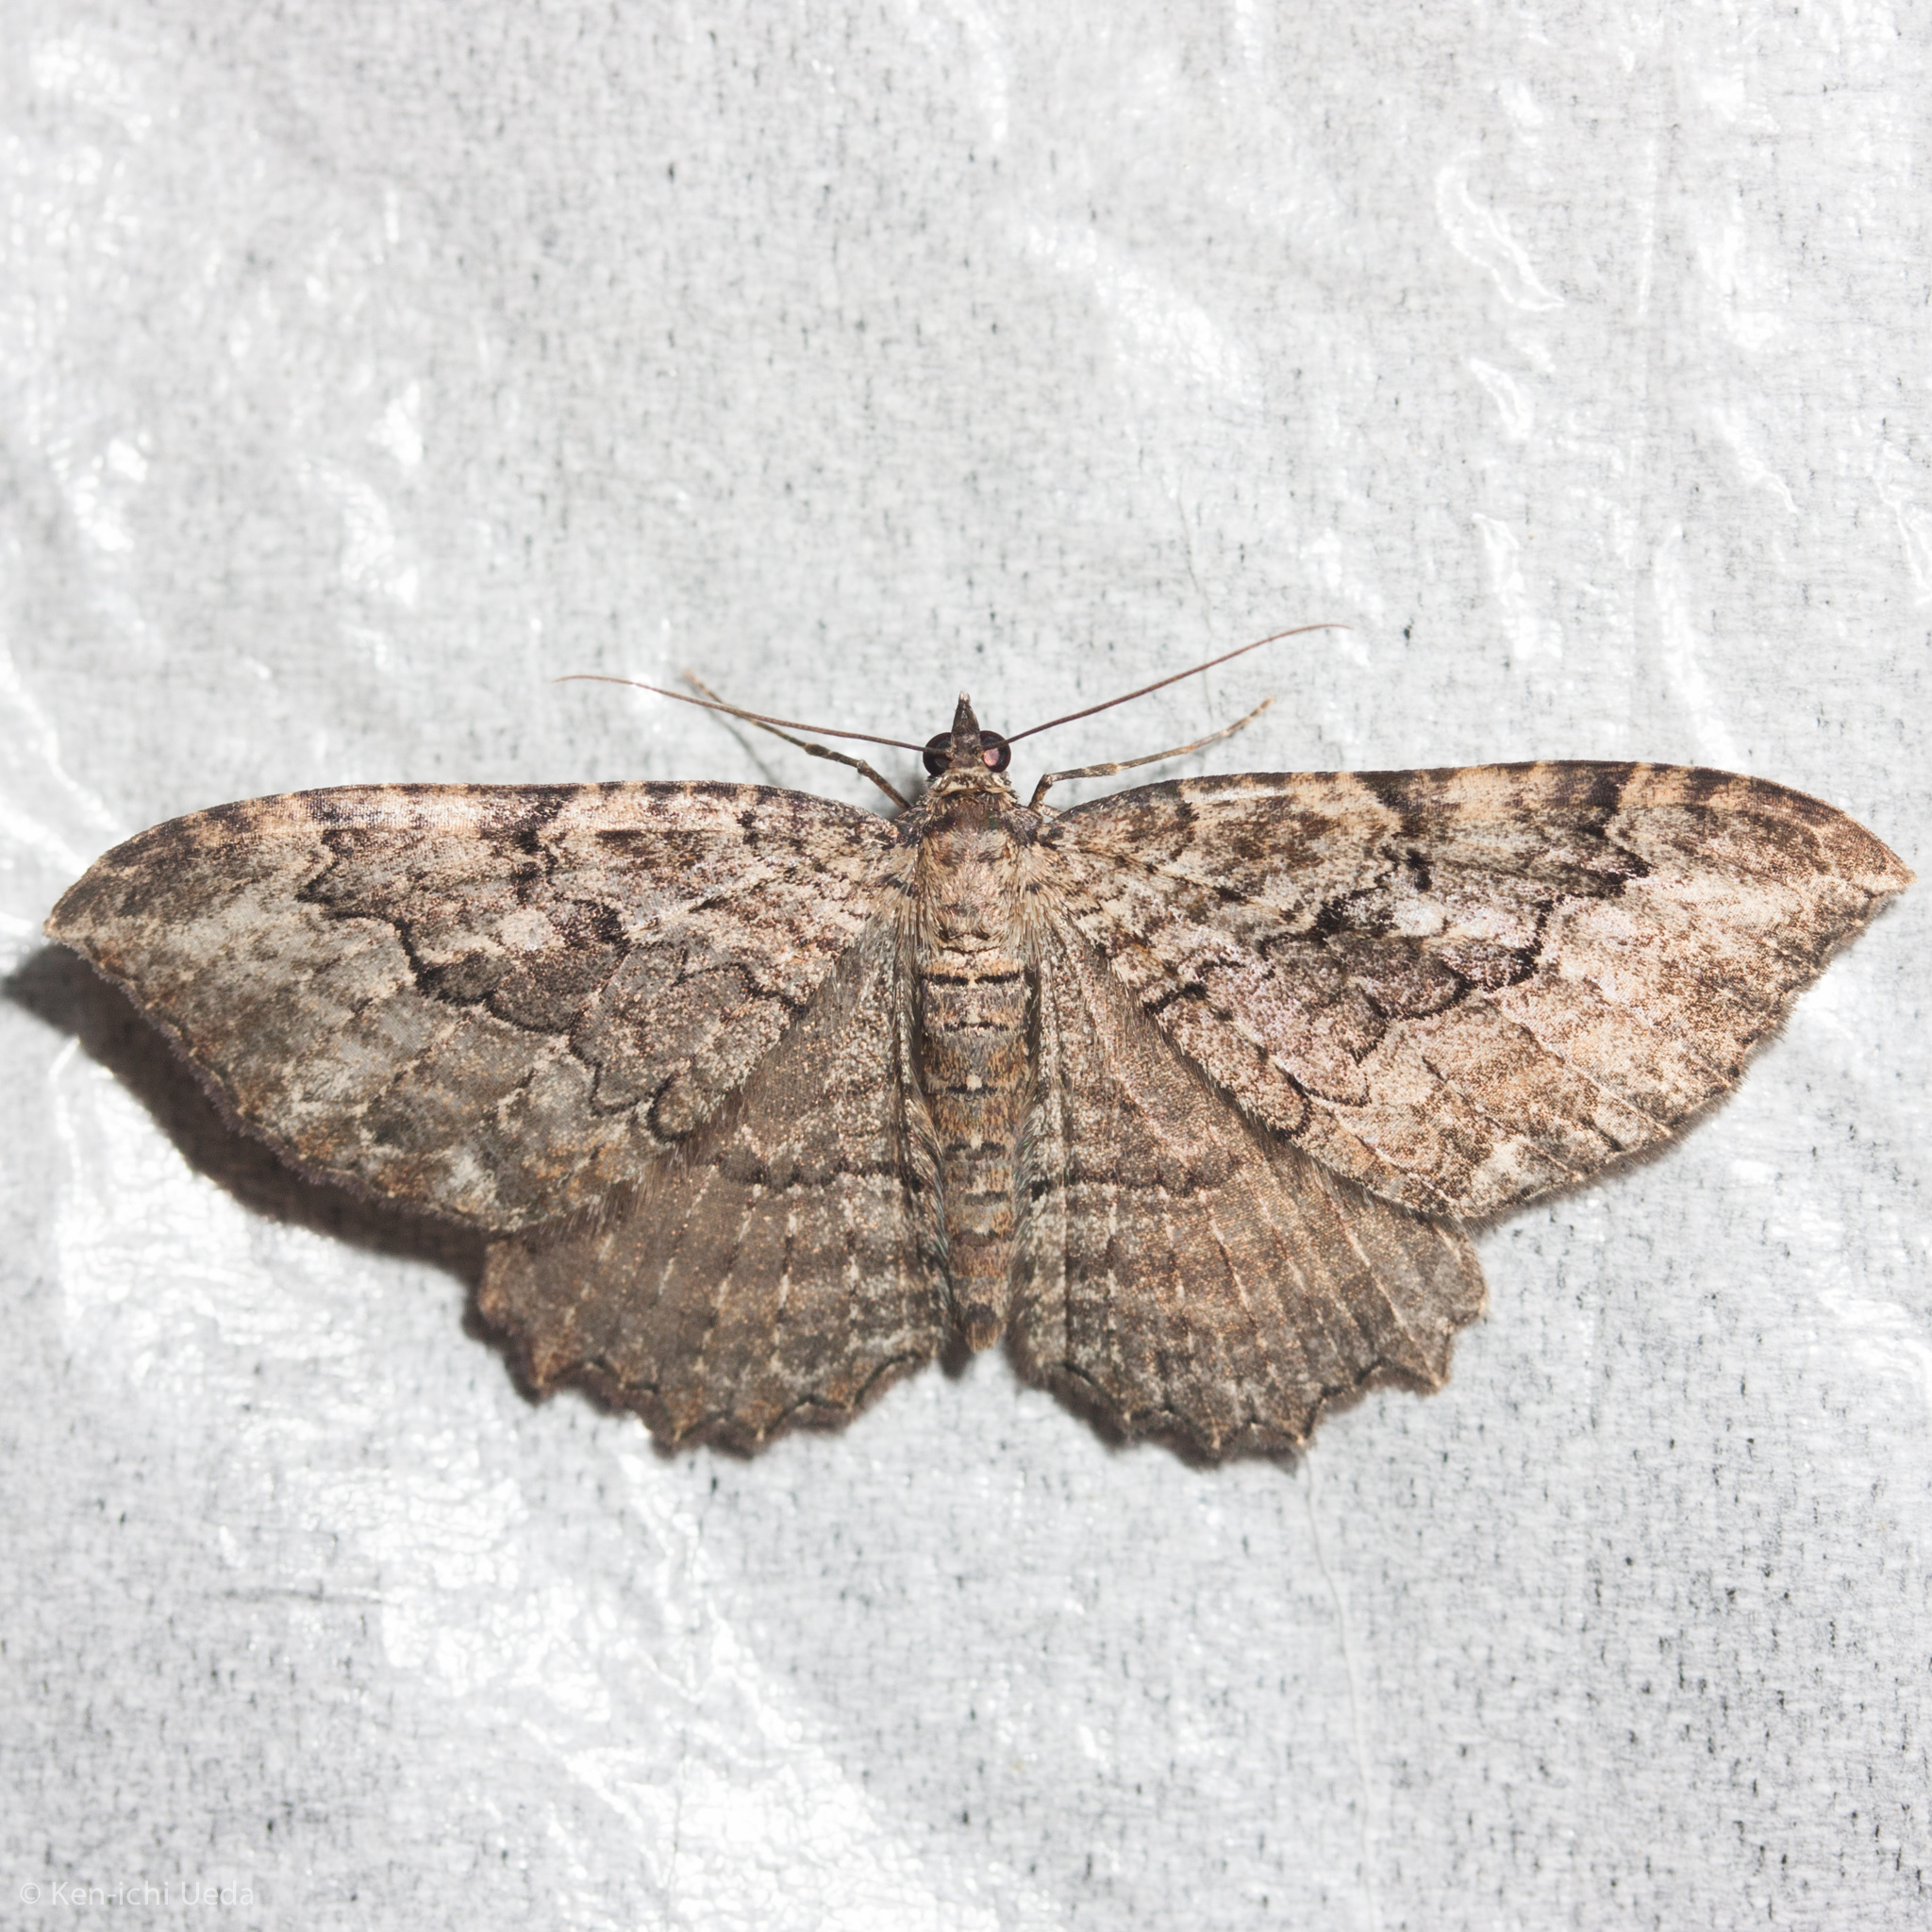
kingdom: Animalia
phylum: Arthropoda
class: Insecta
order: Lepidoptera
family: Geometridae
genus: Rheumaptera
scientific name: Rheumaptera
